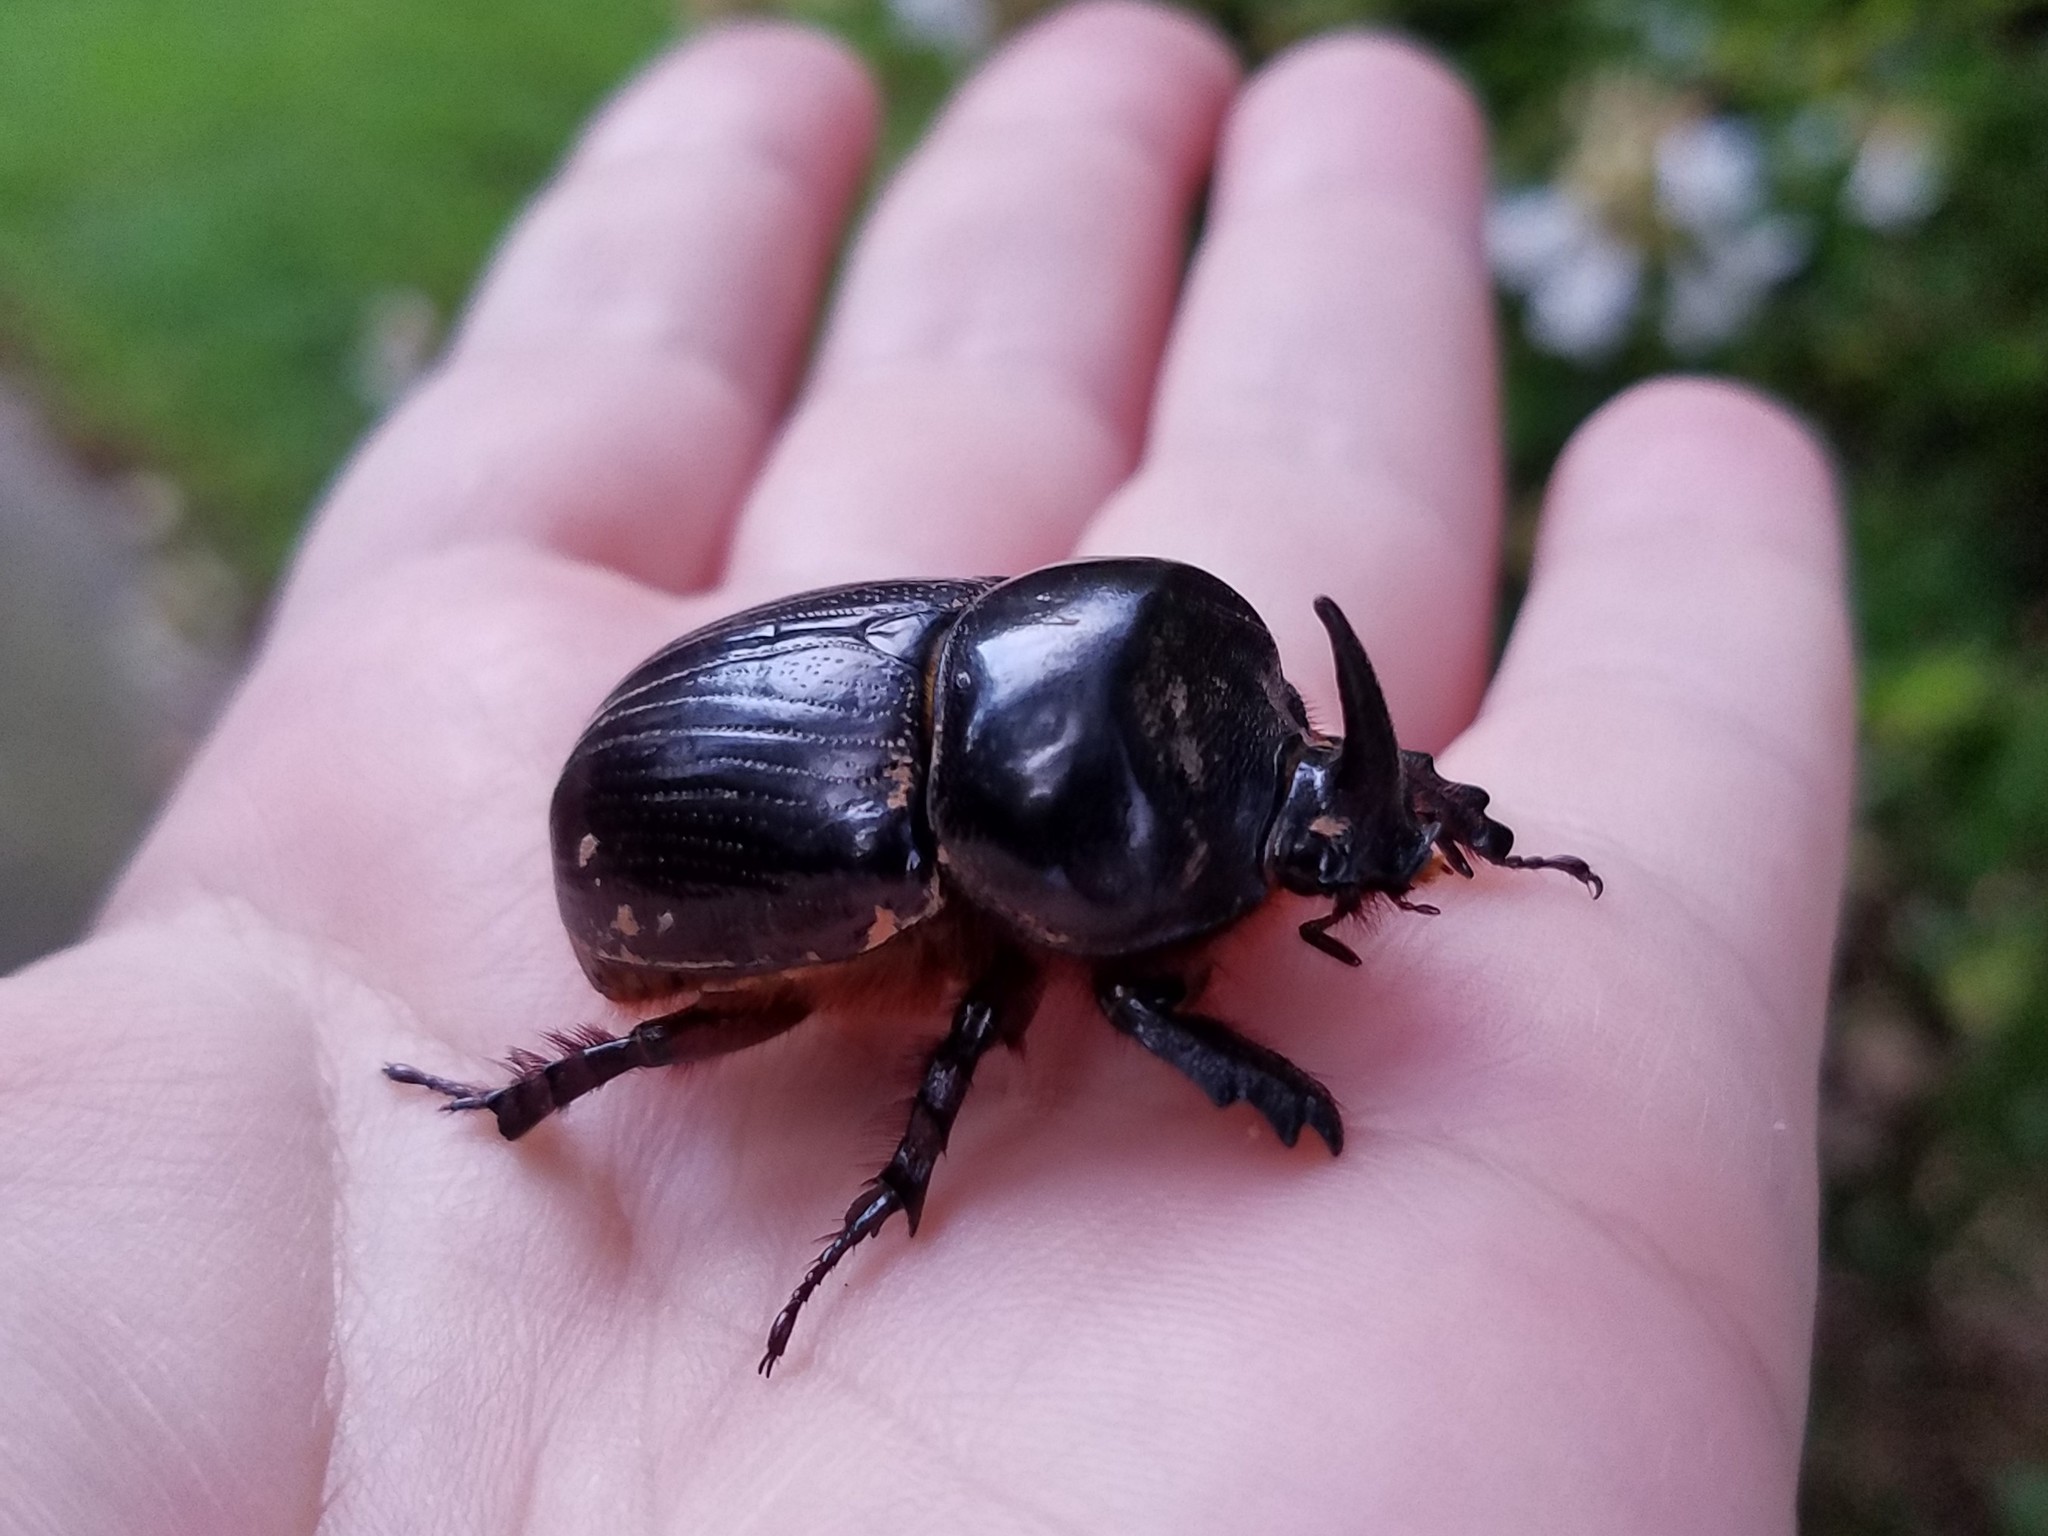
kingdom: Animalia
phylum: Arthropoda
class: Insecta
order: Coleoptera
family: Scarabaeidae
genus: Xyloryctes
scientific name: Xyloryctes jamaicensis
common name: Eastern rhinoceros beetle
